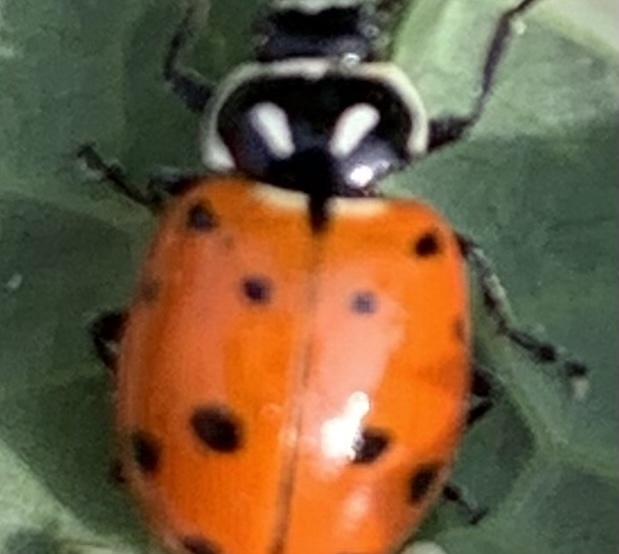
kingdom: Animalia
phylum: Arthropoda
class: Insecta
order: Coleoptera
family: Coccinellidae
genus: Hippodamia
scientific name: Hippodamia convergens
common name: Convergent lady beetle
